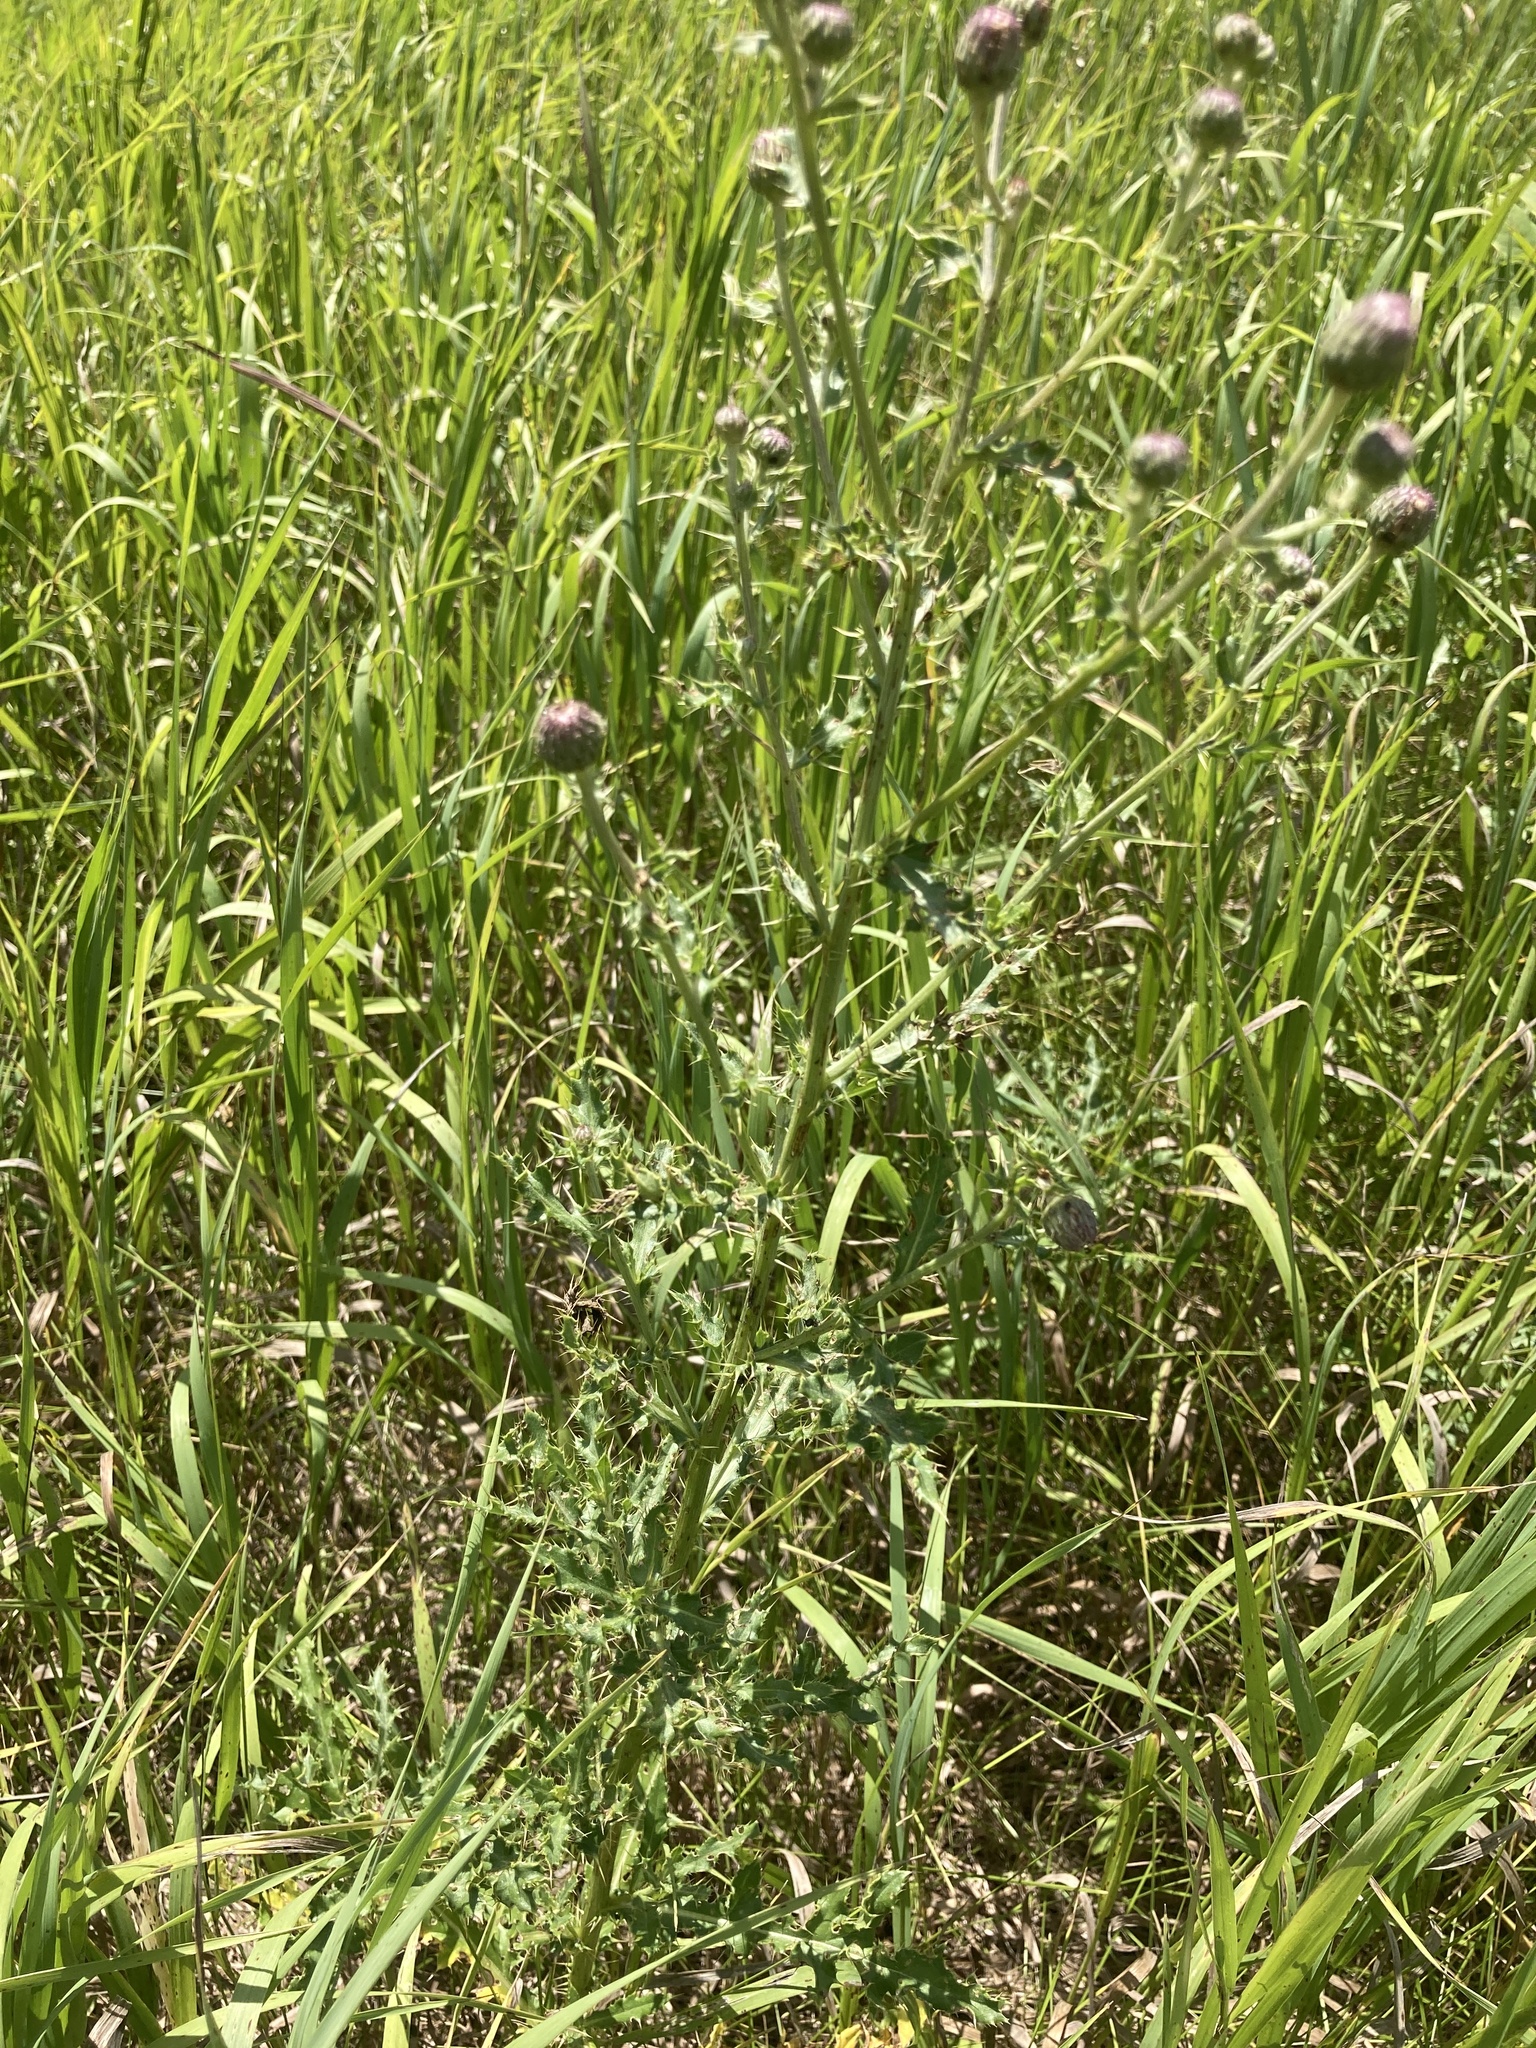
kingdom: Plantae
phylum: Tracheophyta
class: Magnoliopsida
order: Asterales
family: Asteraceae
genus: Cirsium
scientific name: Cirsium arvense
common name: Creeping thistle
